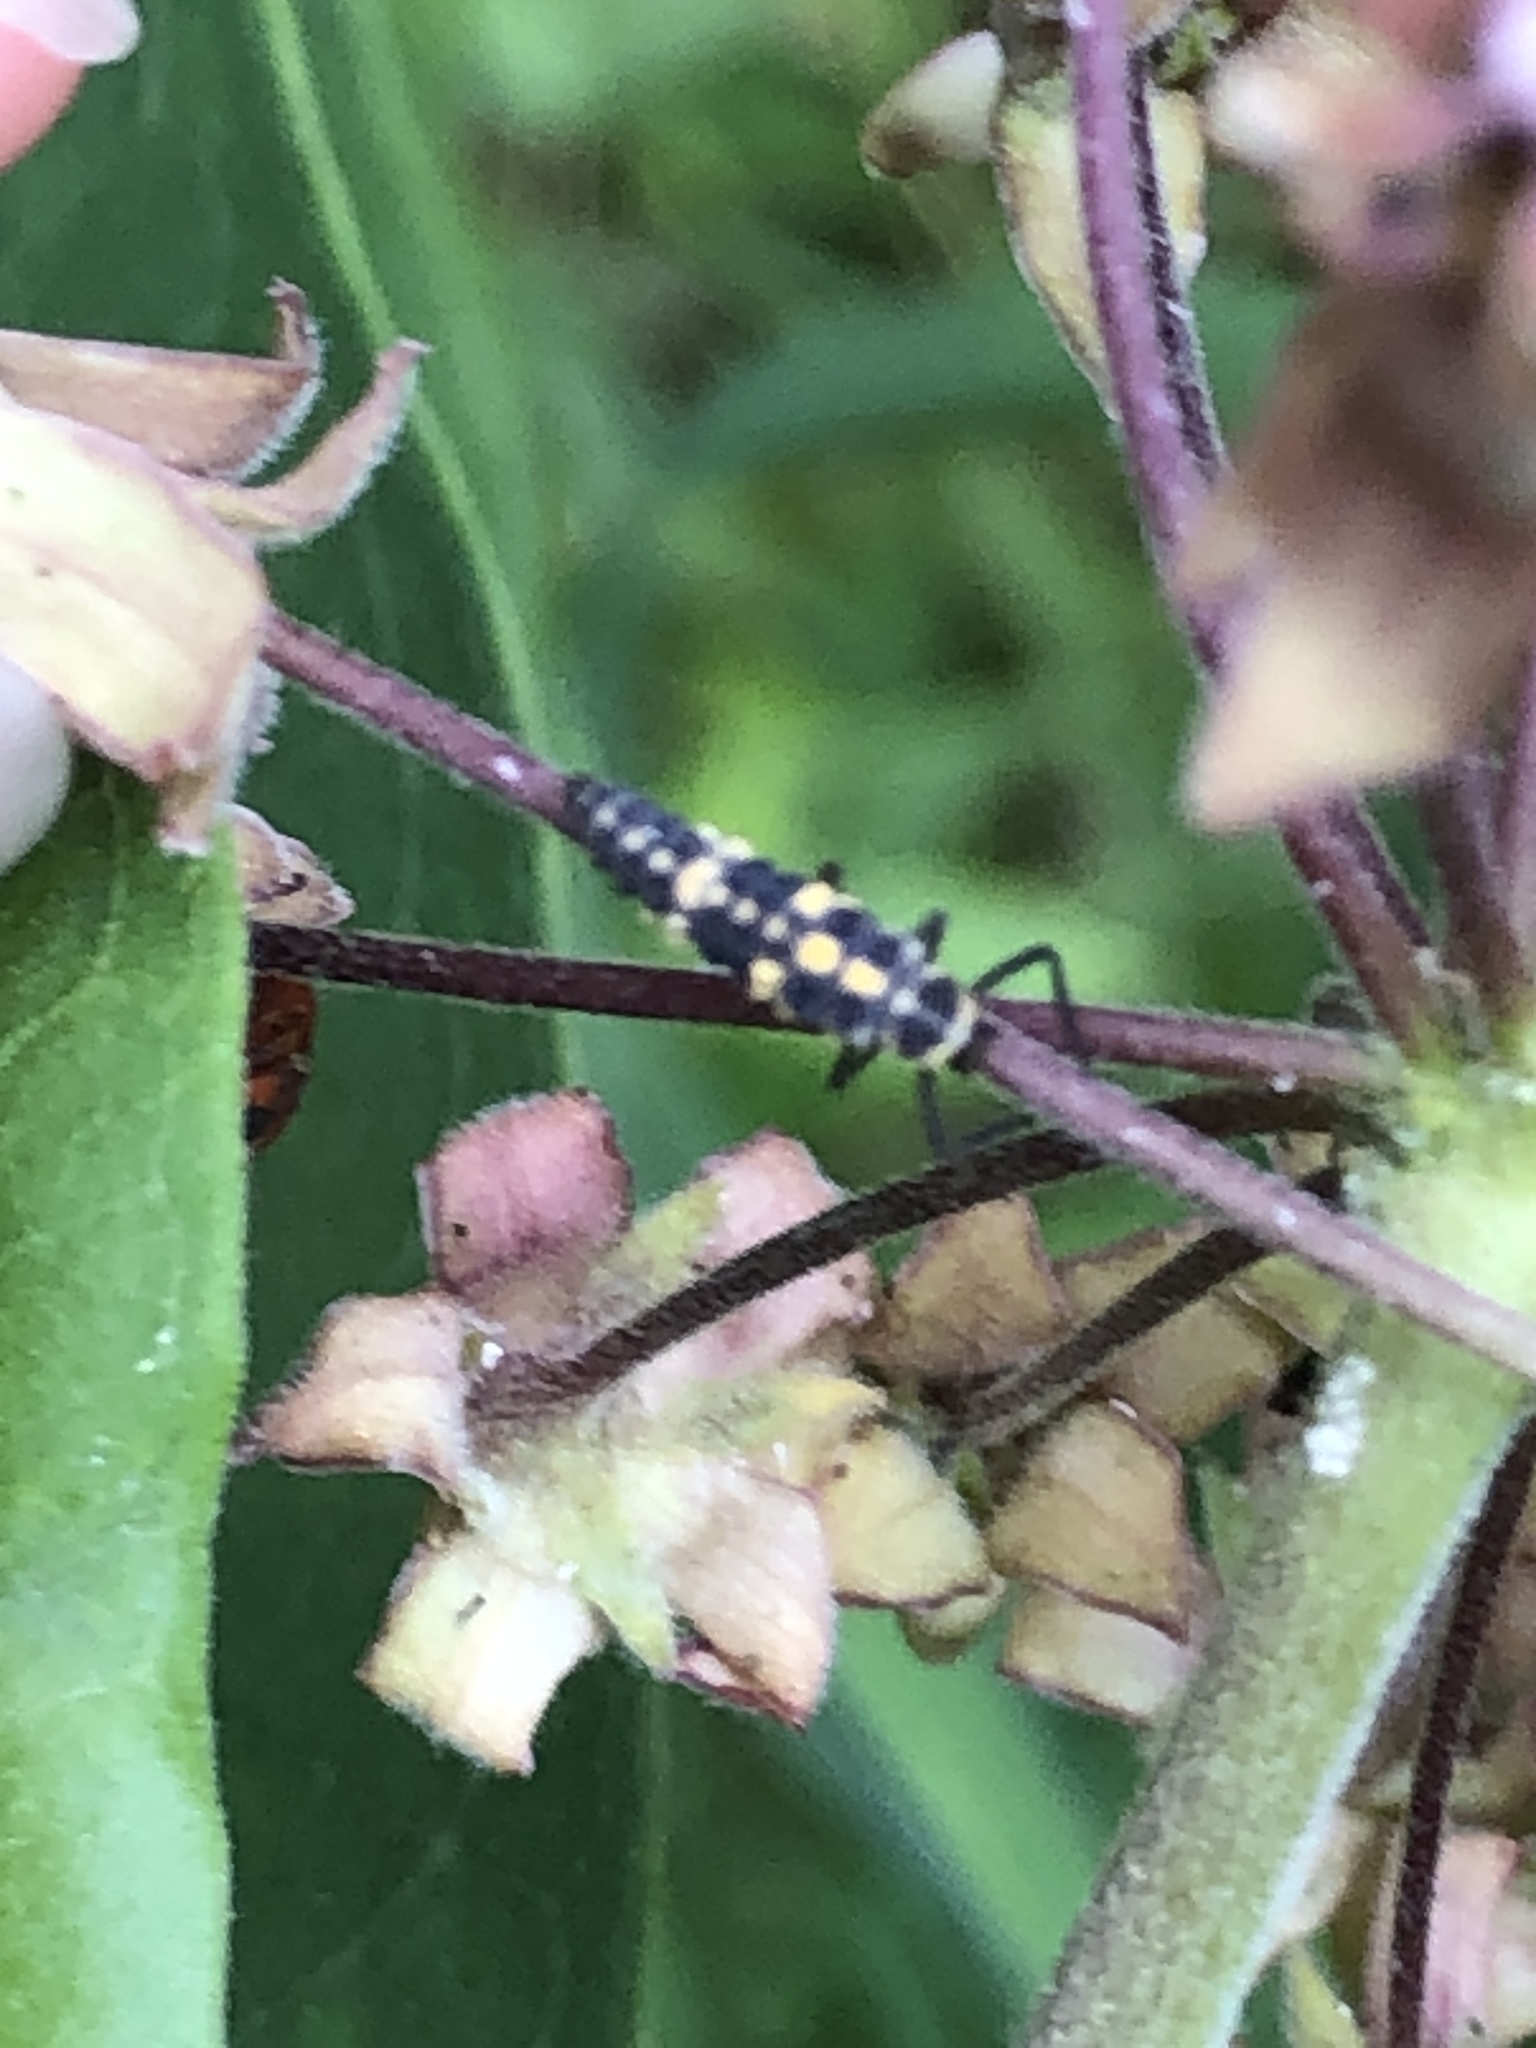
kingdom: Animalia
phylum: Arthropoda
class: Insecta
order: Coleoptera
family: Coccinellidae
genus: Propylaea
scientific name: Propylaea quatuordecimpunctata
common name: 14-spotted ladybird beetle
